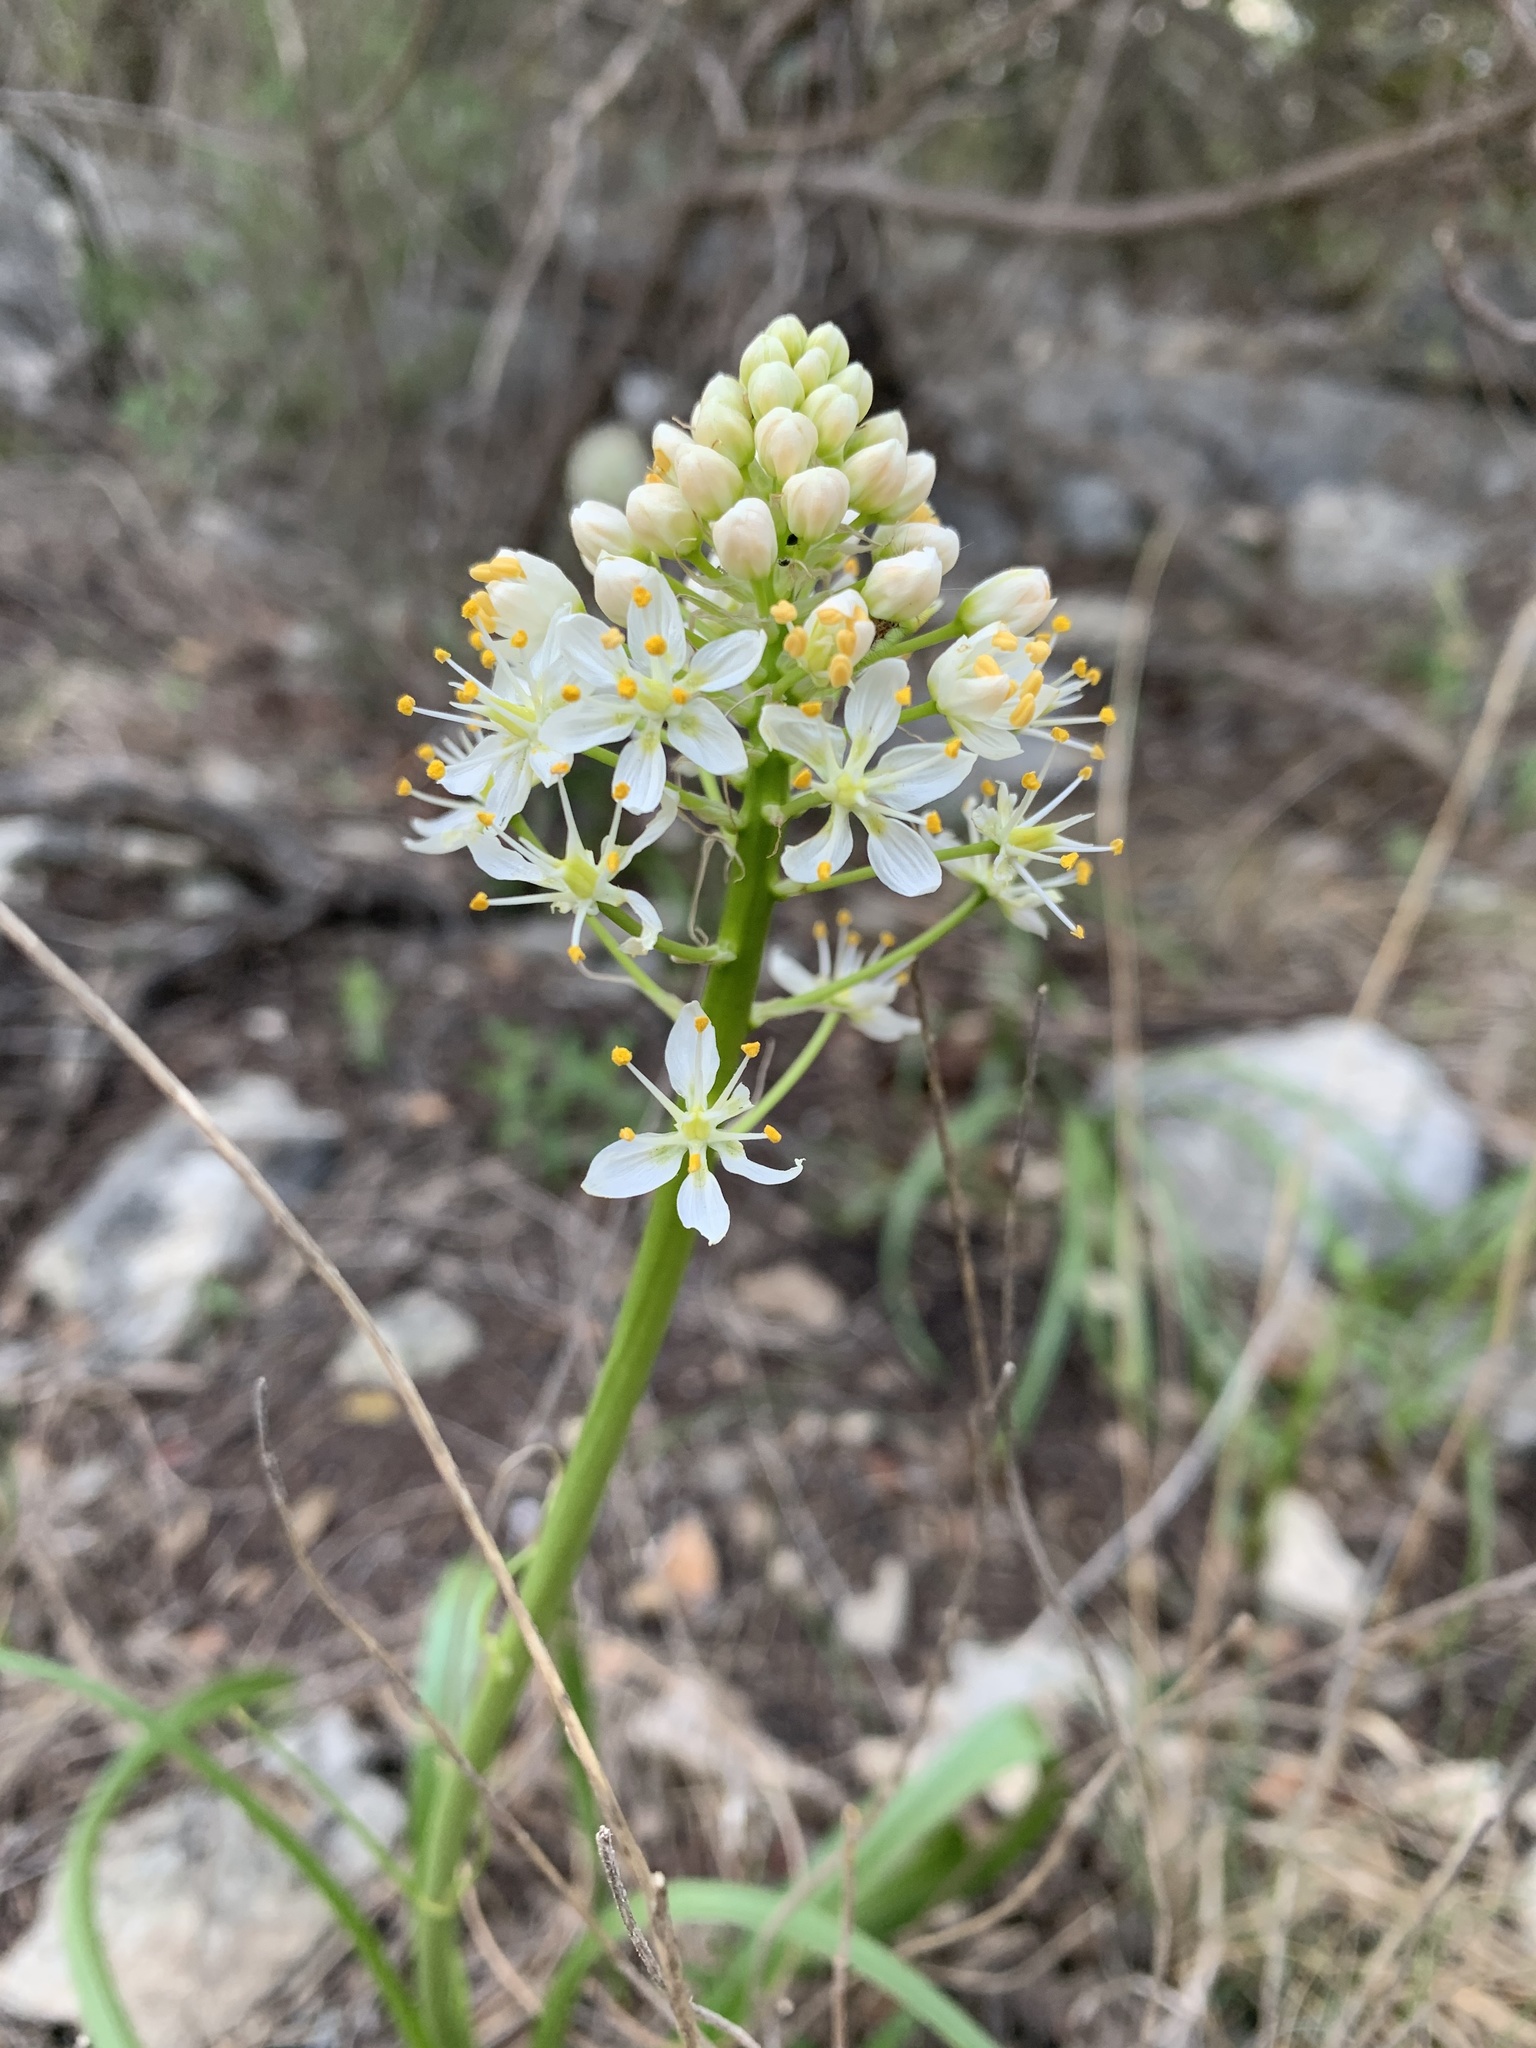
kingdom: Plantae
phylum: Tracheophyta
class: Liliopsida
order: Liliales
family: Melanthiaceae
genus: Toxicoscordion
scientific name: Toxicoscordion nuttallii
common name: Poison sego
